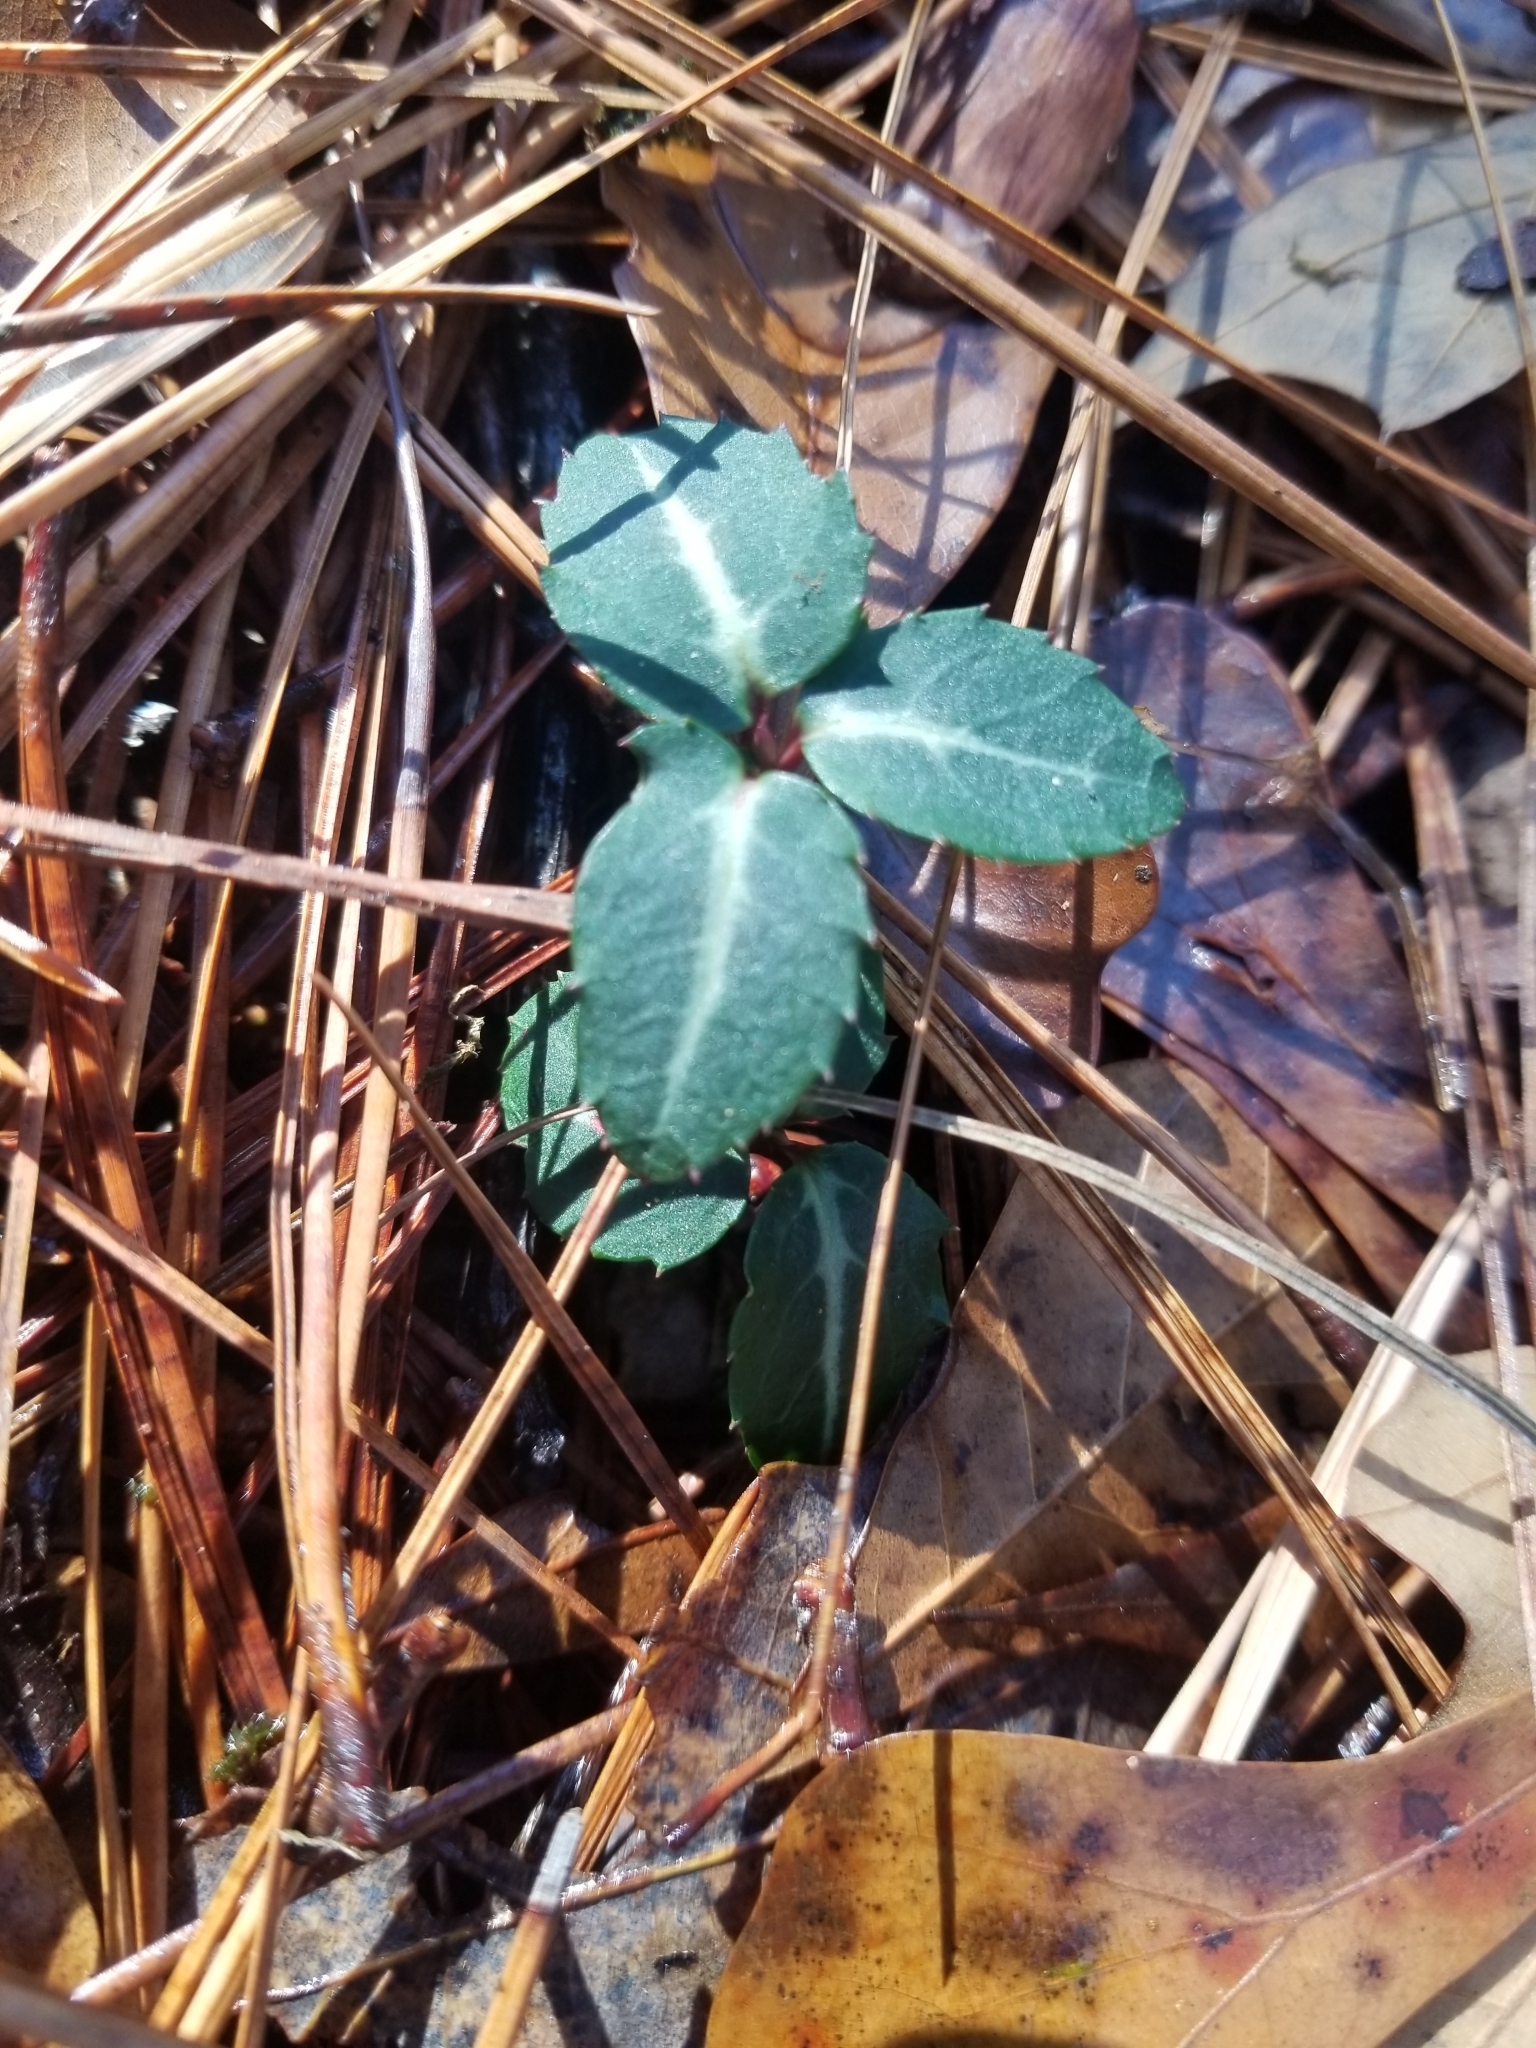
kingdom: Plantae
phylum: Tracheophyta
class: Magnoliopsida
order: Ericales
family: Ericaceae
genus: Chimaphila
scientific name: Chimaphila maculata
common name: Spotted pipsissewa
